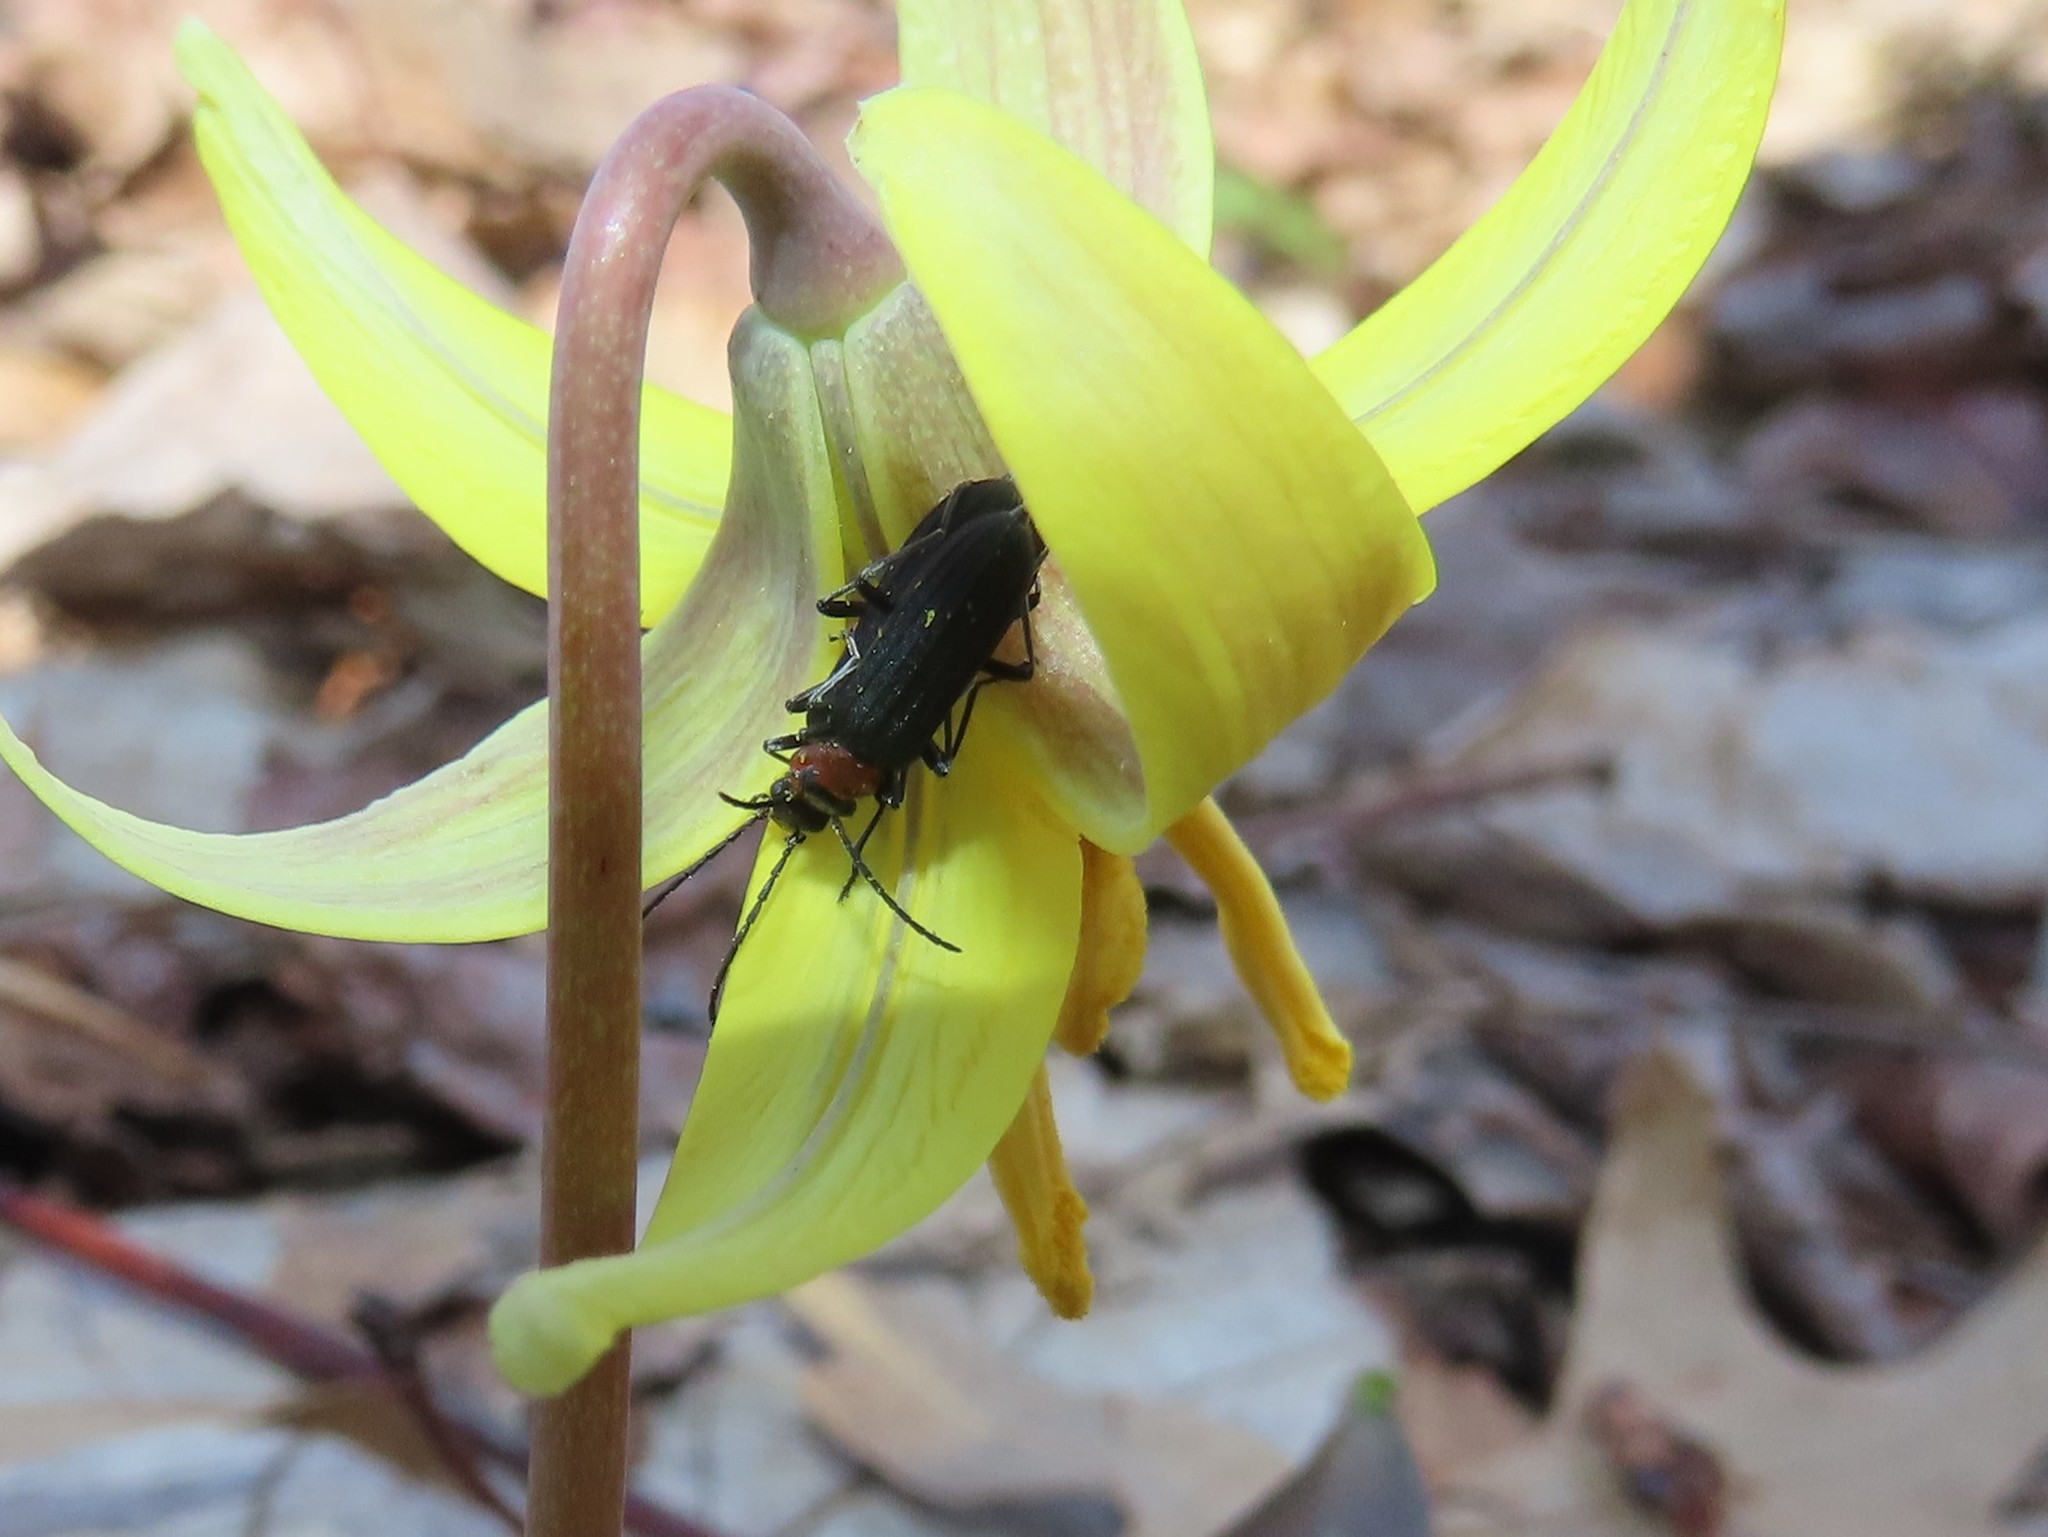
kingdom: Animalia
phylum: Arthropoda
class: Insecta
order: Coleoptera
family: Oedemeridae
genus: Ischnomera
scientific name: Ischnomera
